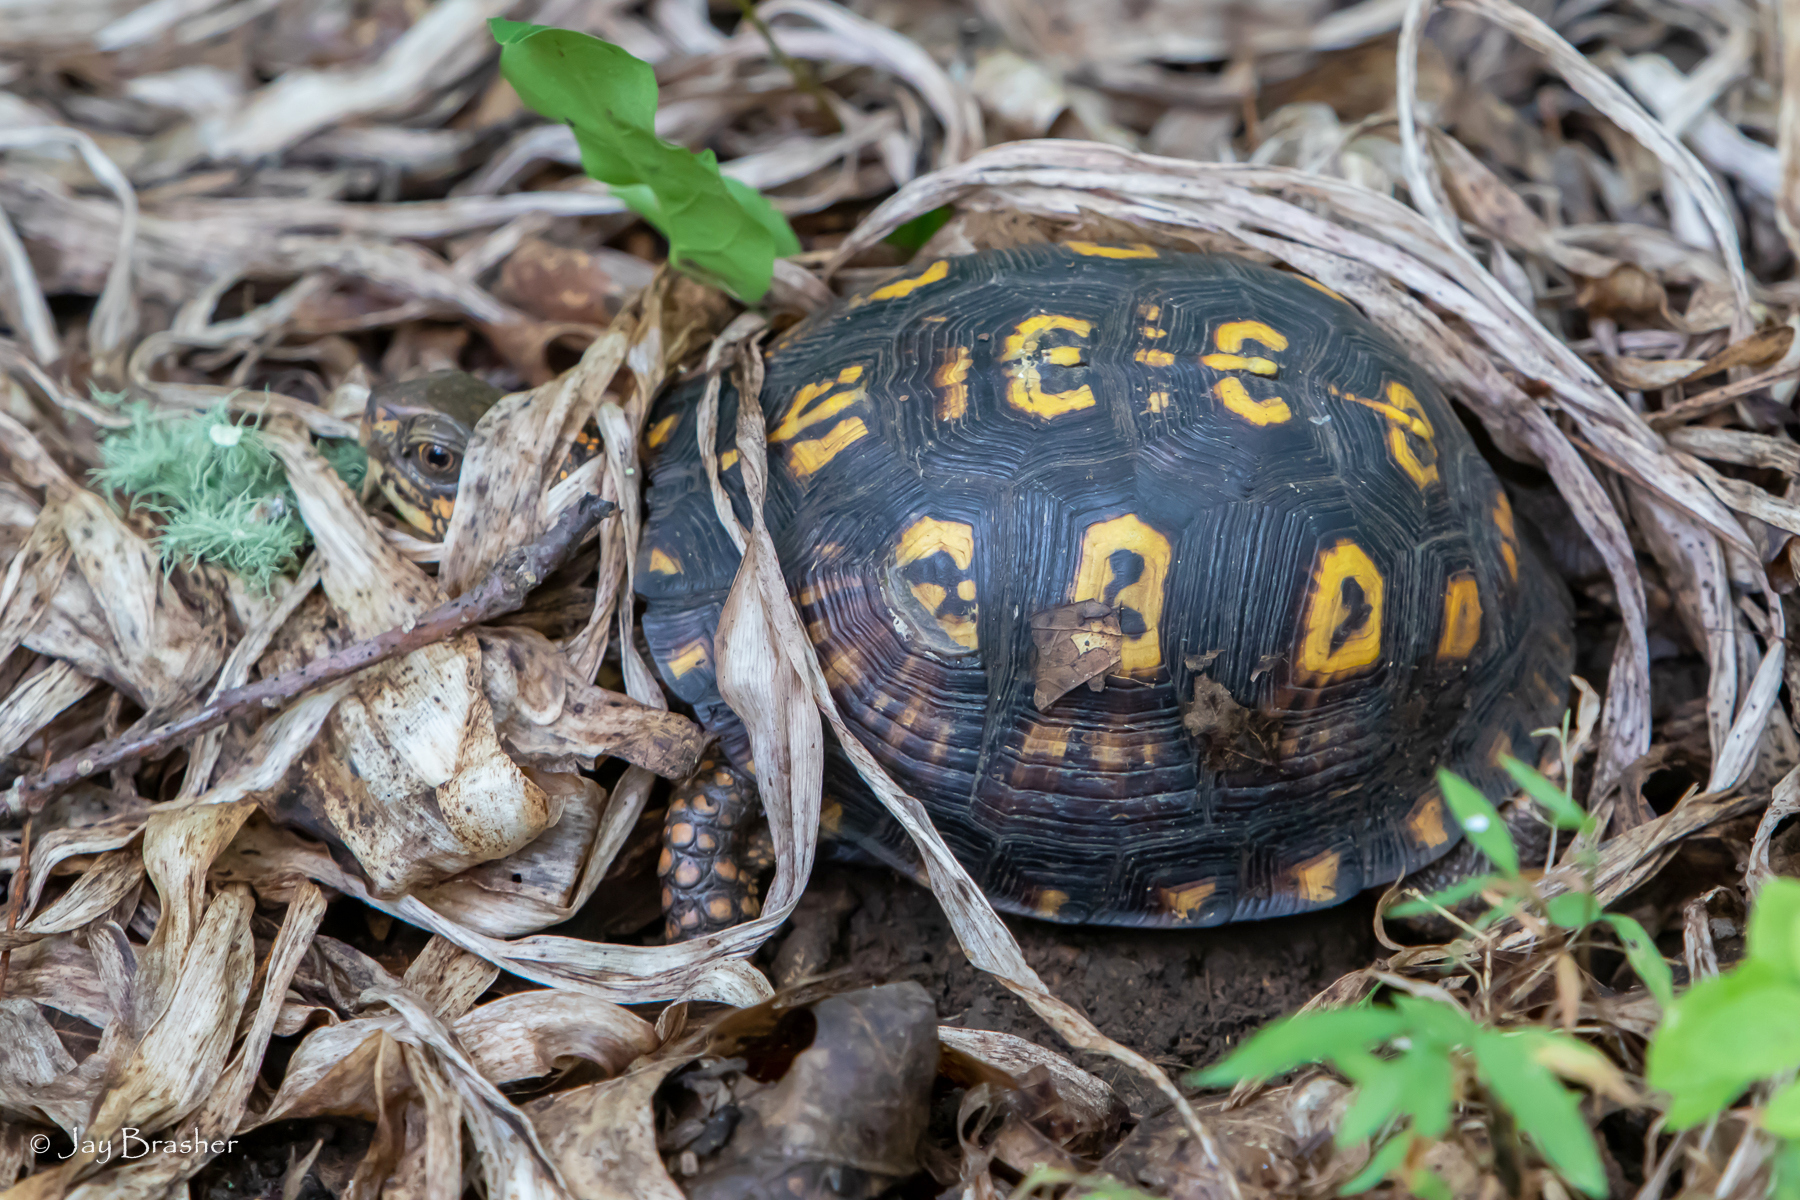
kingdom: Animalia
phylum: Chordata
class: Testudines
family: Emydidae
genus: Terrapene
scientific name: Terrapene carolina
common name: Common box turtle
